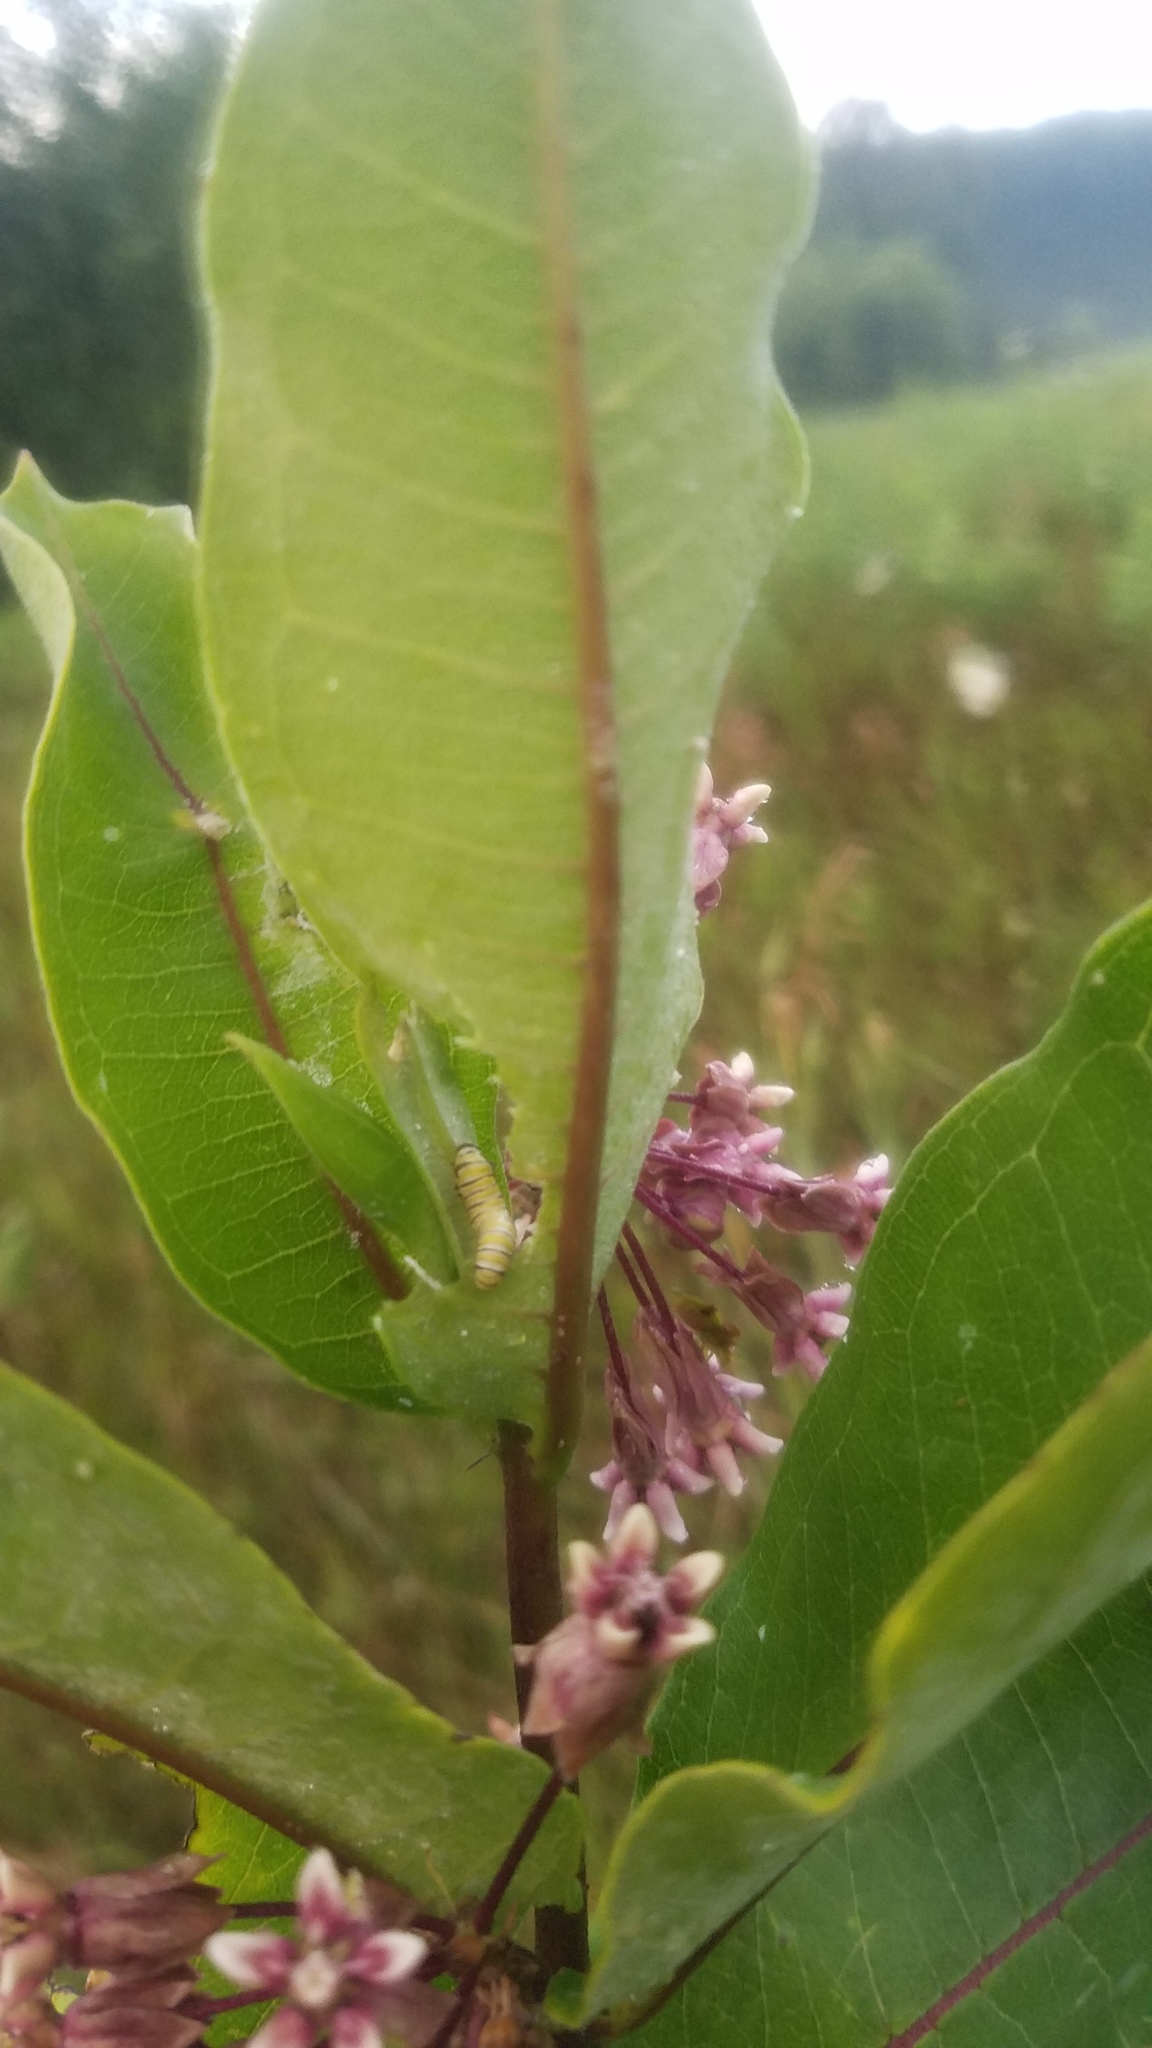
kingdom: Plantae
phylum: Tracheophyta
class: Magnoliopsida
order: Gentianales
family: Apocynaceae
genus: Asclepias
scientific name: Asclepias syriaca
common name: Common milkweed
